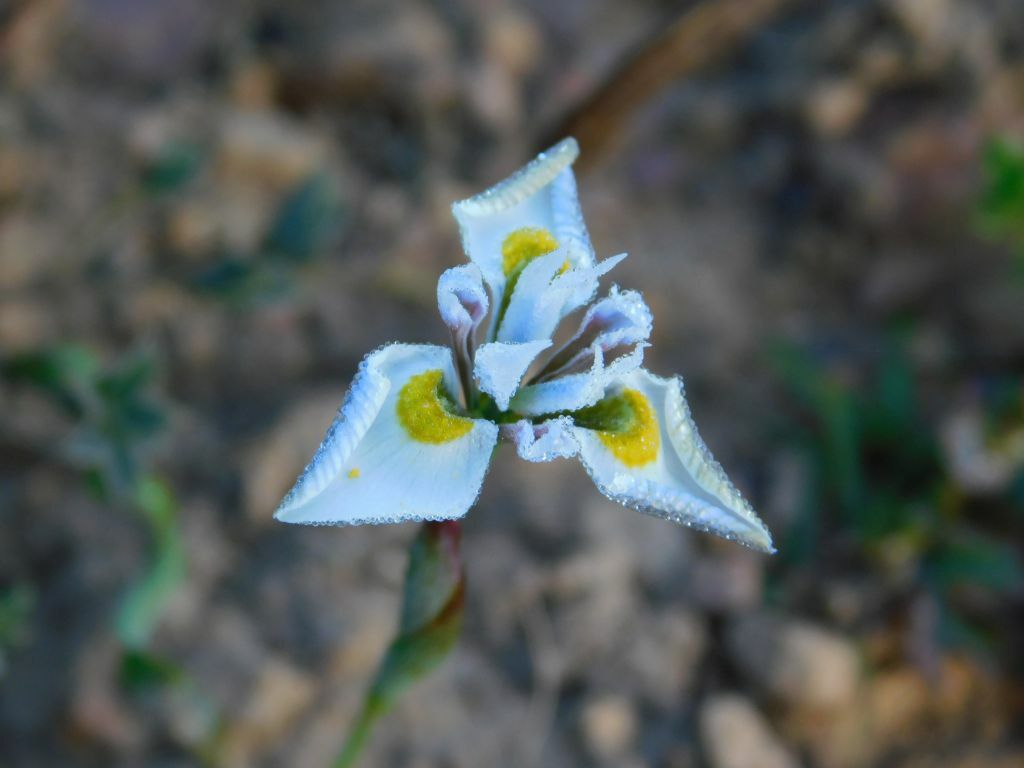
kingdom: Plantae
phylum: Tracheophyta
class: Liliopsida
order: Asparagales
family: Iridaceae
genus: Moraea
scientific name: Moraea fergusoniae
